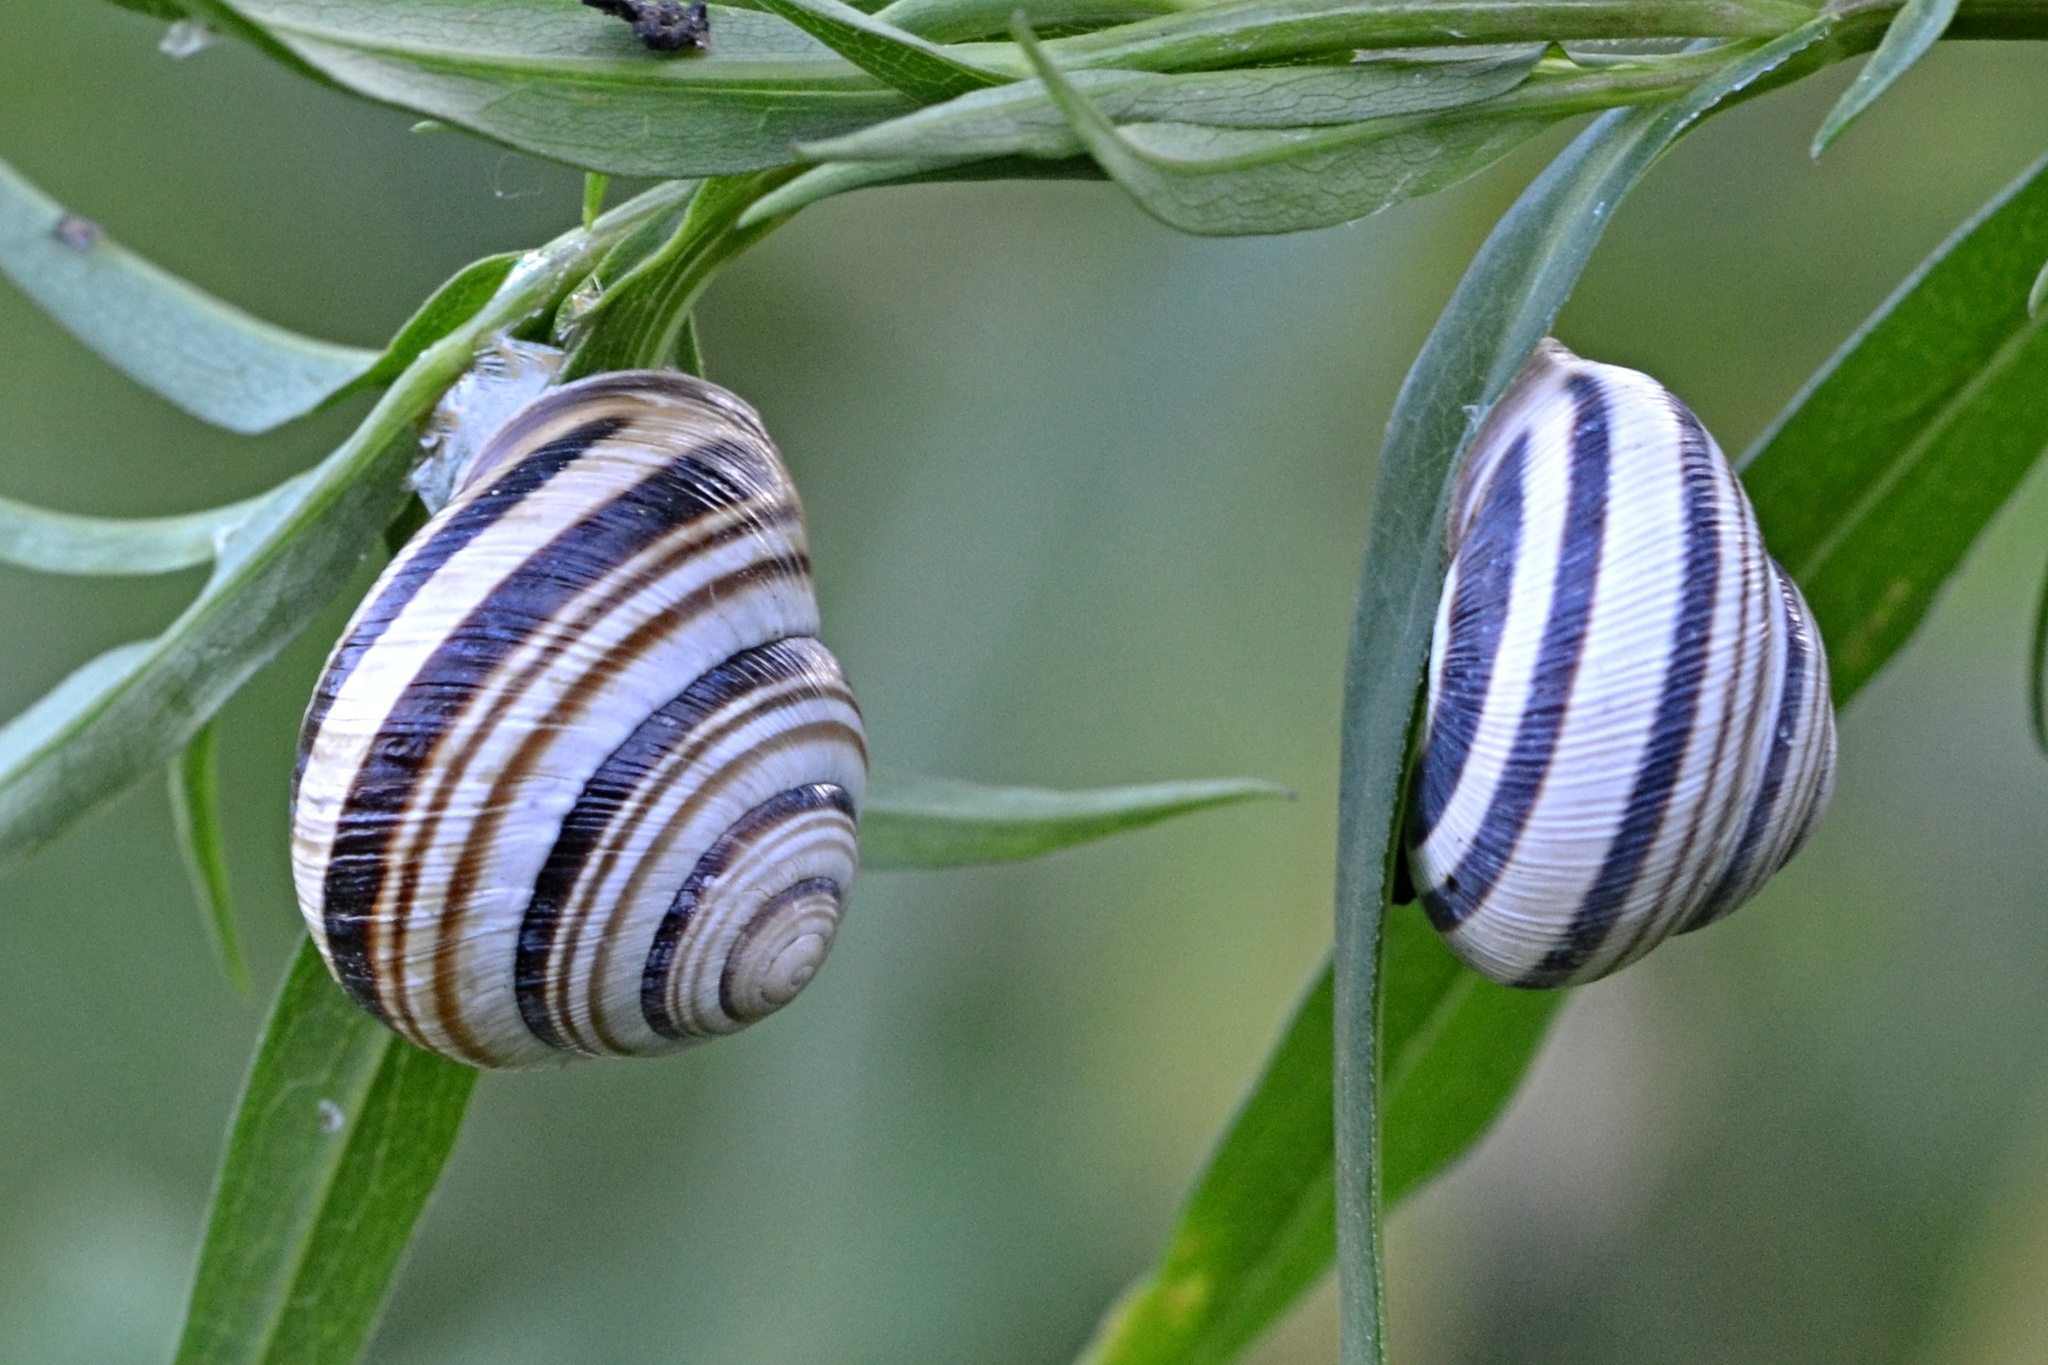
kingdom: Animalia
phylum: Mollusca
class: Gastropoda
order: Stylommatophora
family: Helicidae
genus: Caucasotachea
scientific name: Caucasotachea vindobonensis
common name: European helicid land snail
